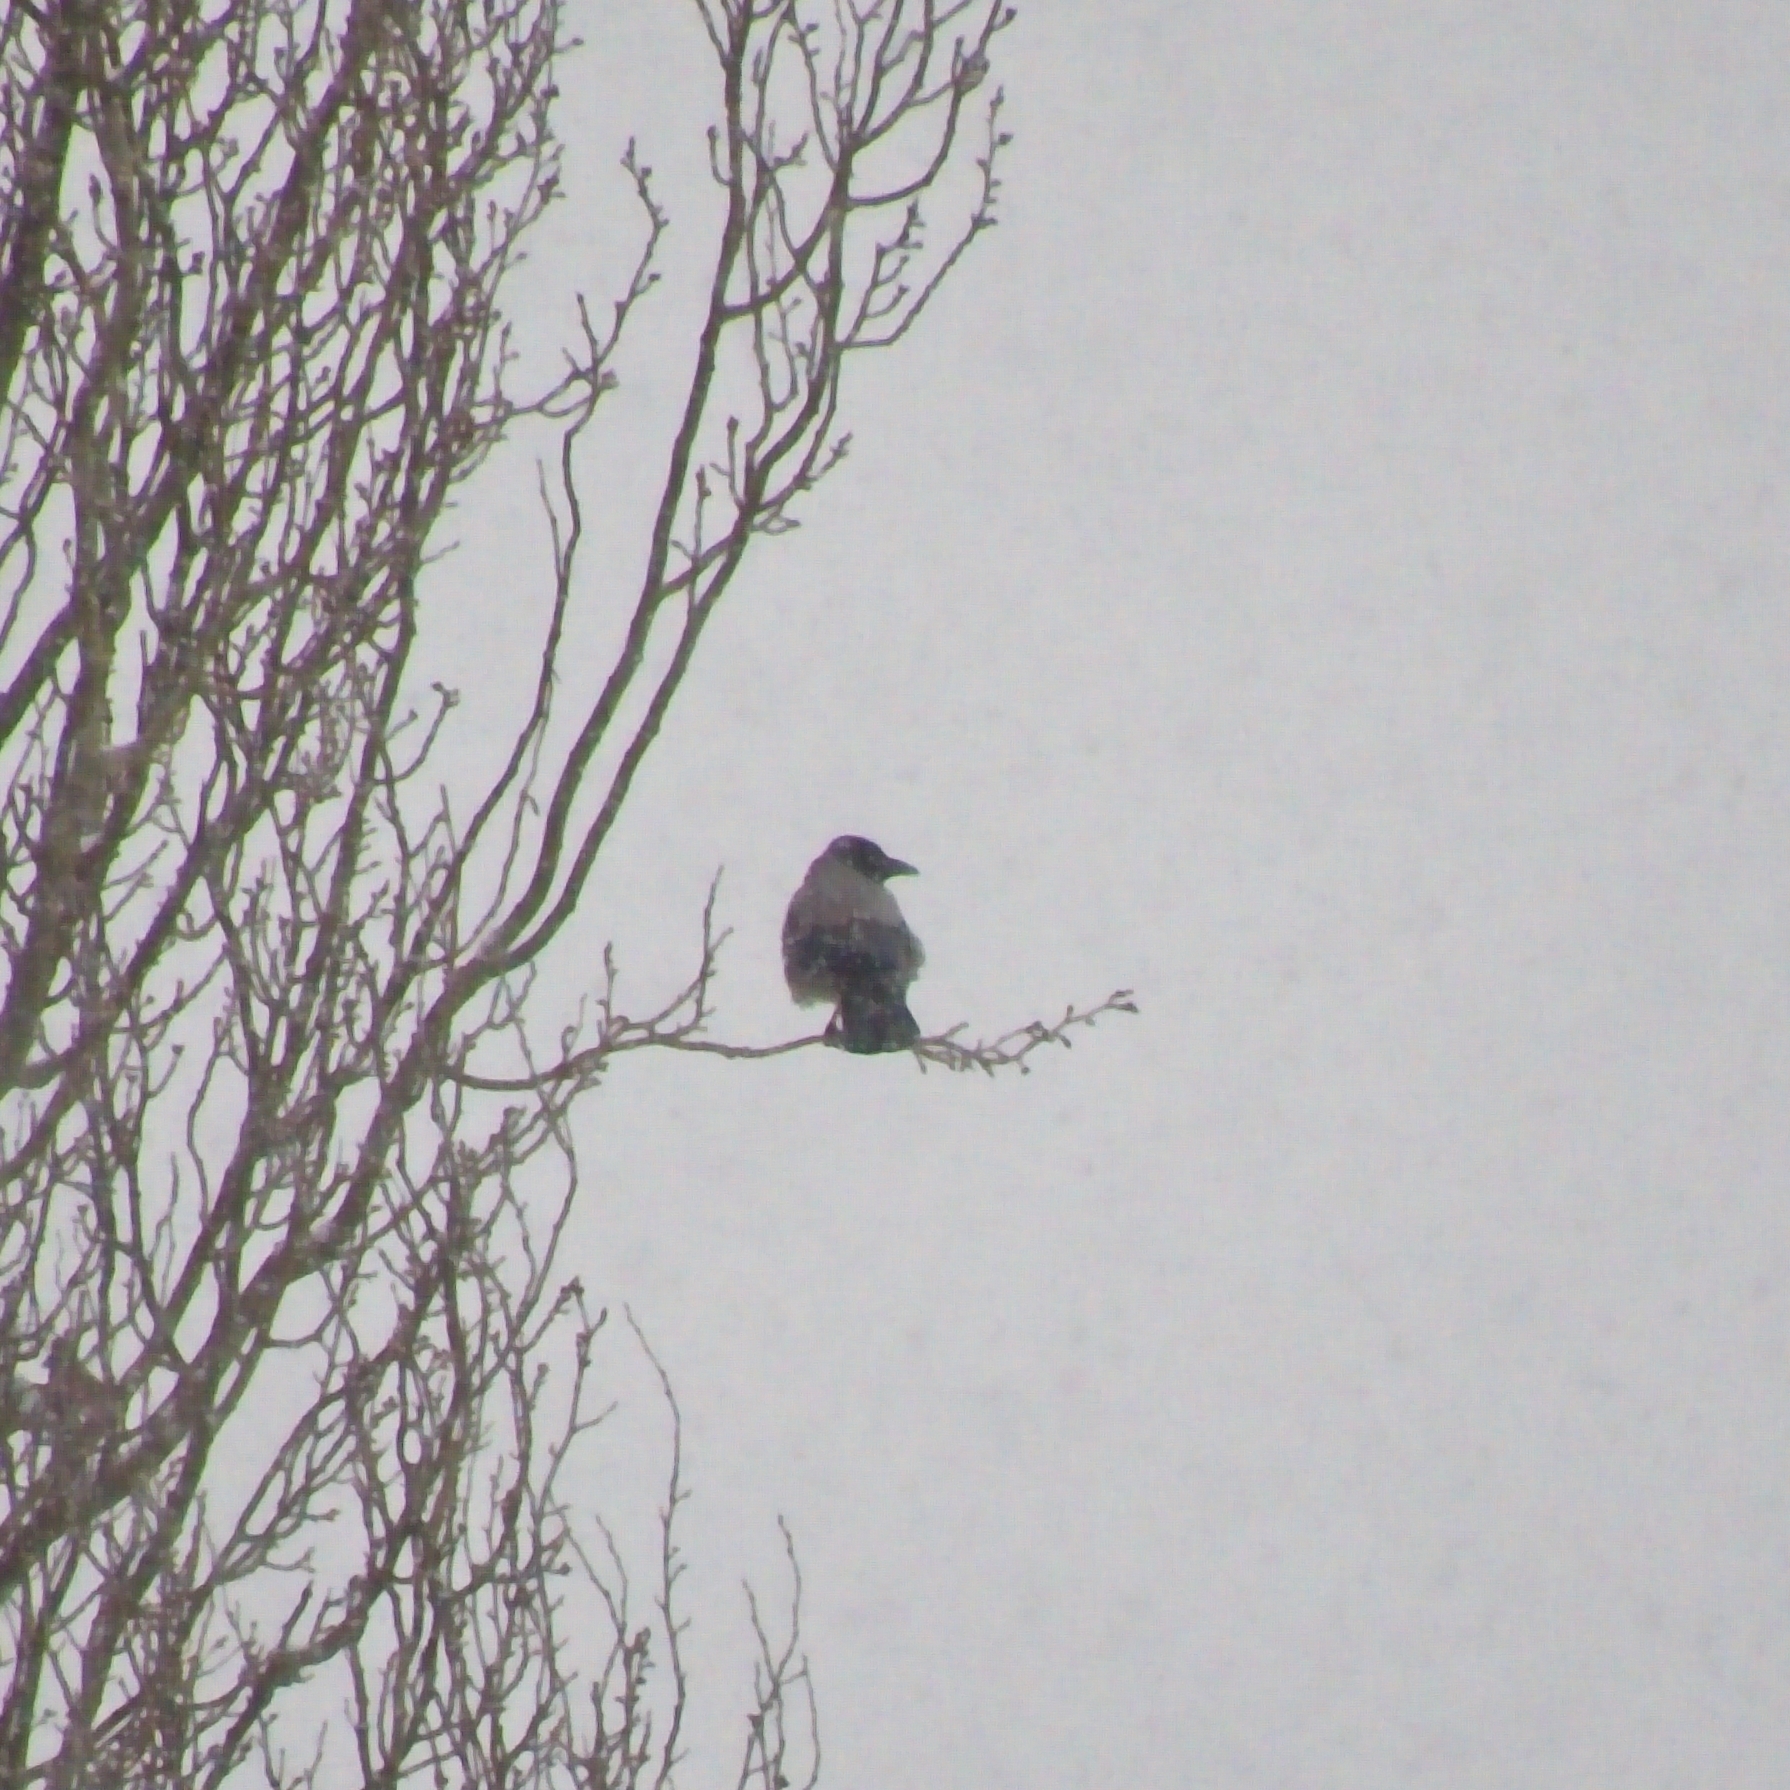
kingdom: Animalia
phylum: Chordata
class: Aves
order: Passeriformes
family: Corvidae
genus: Corvus
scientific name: Corvus cornix
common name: Hooded crow
